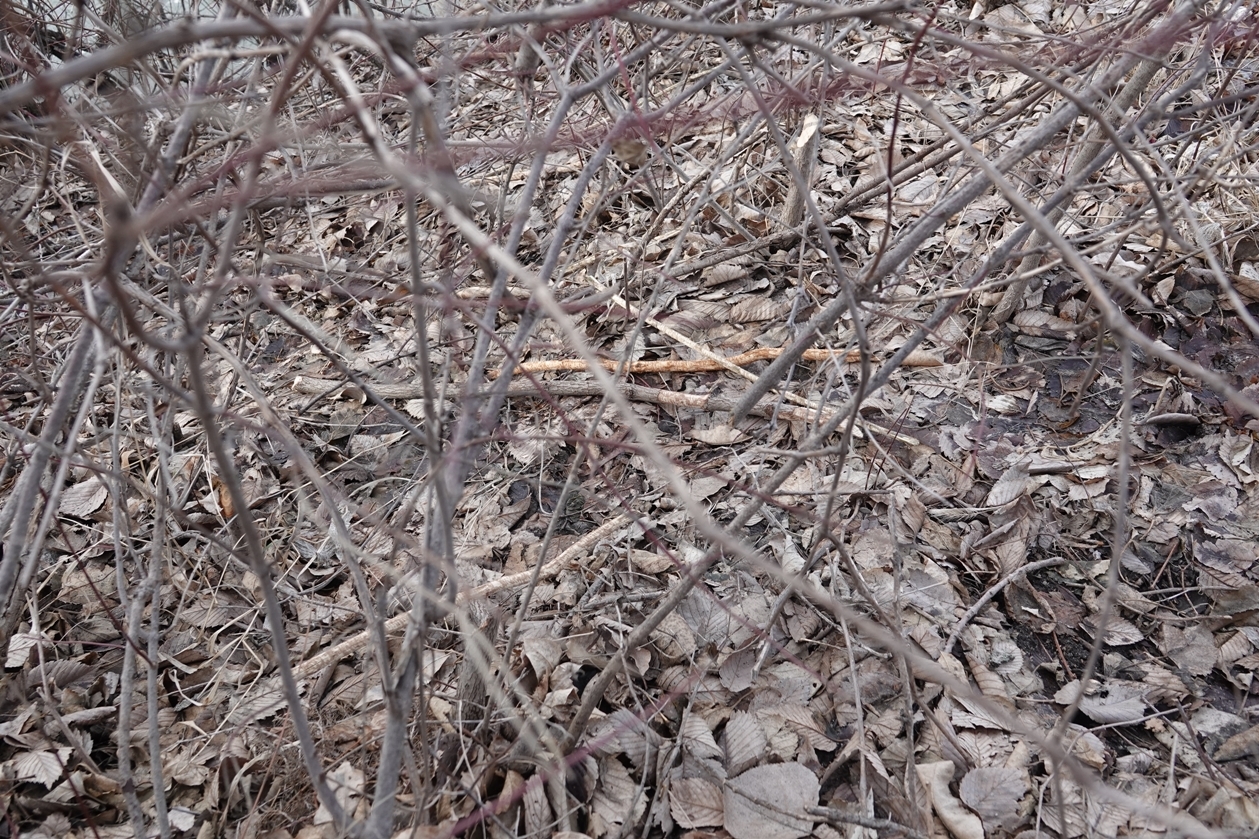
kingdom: Animalia
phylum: Chordata
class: Mammalia
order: Rodentia
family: Castoridae
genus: Castor
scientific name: Castor canadensis
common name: American beaver
